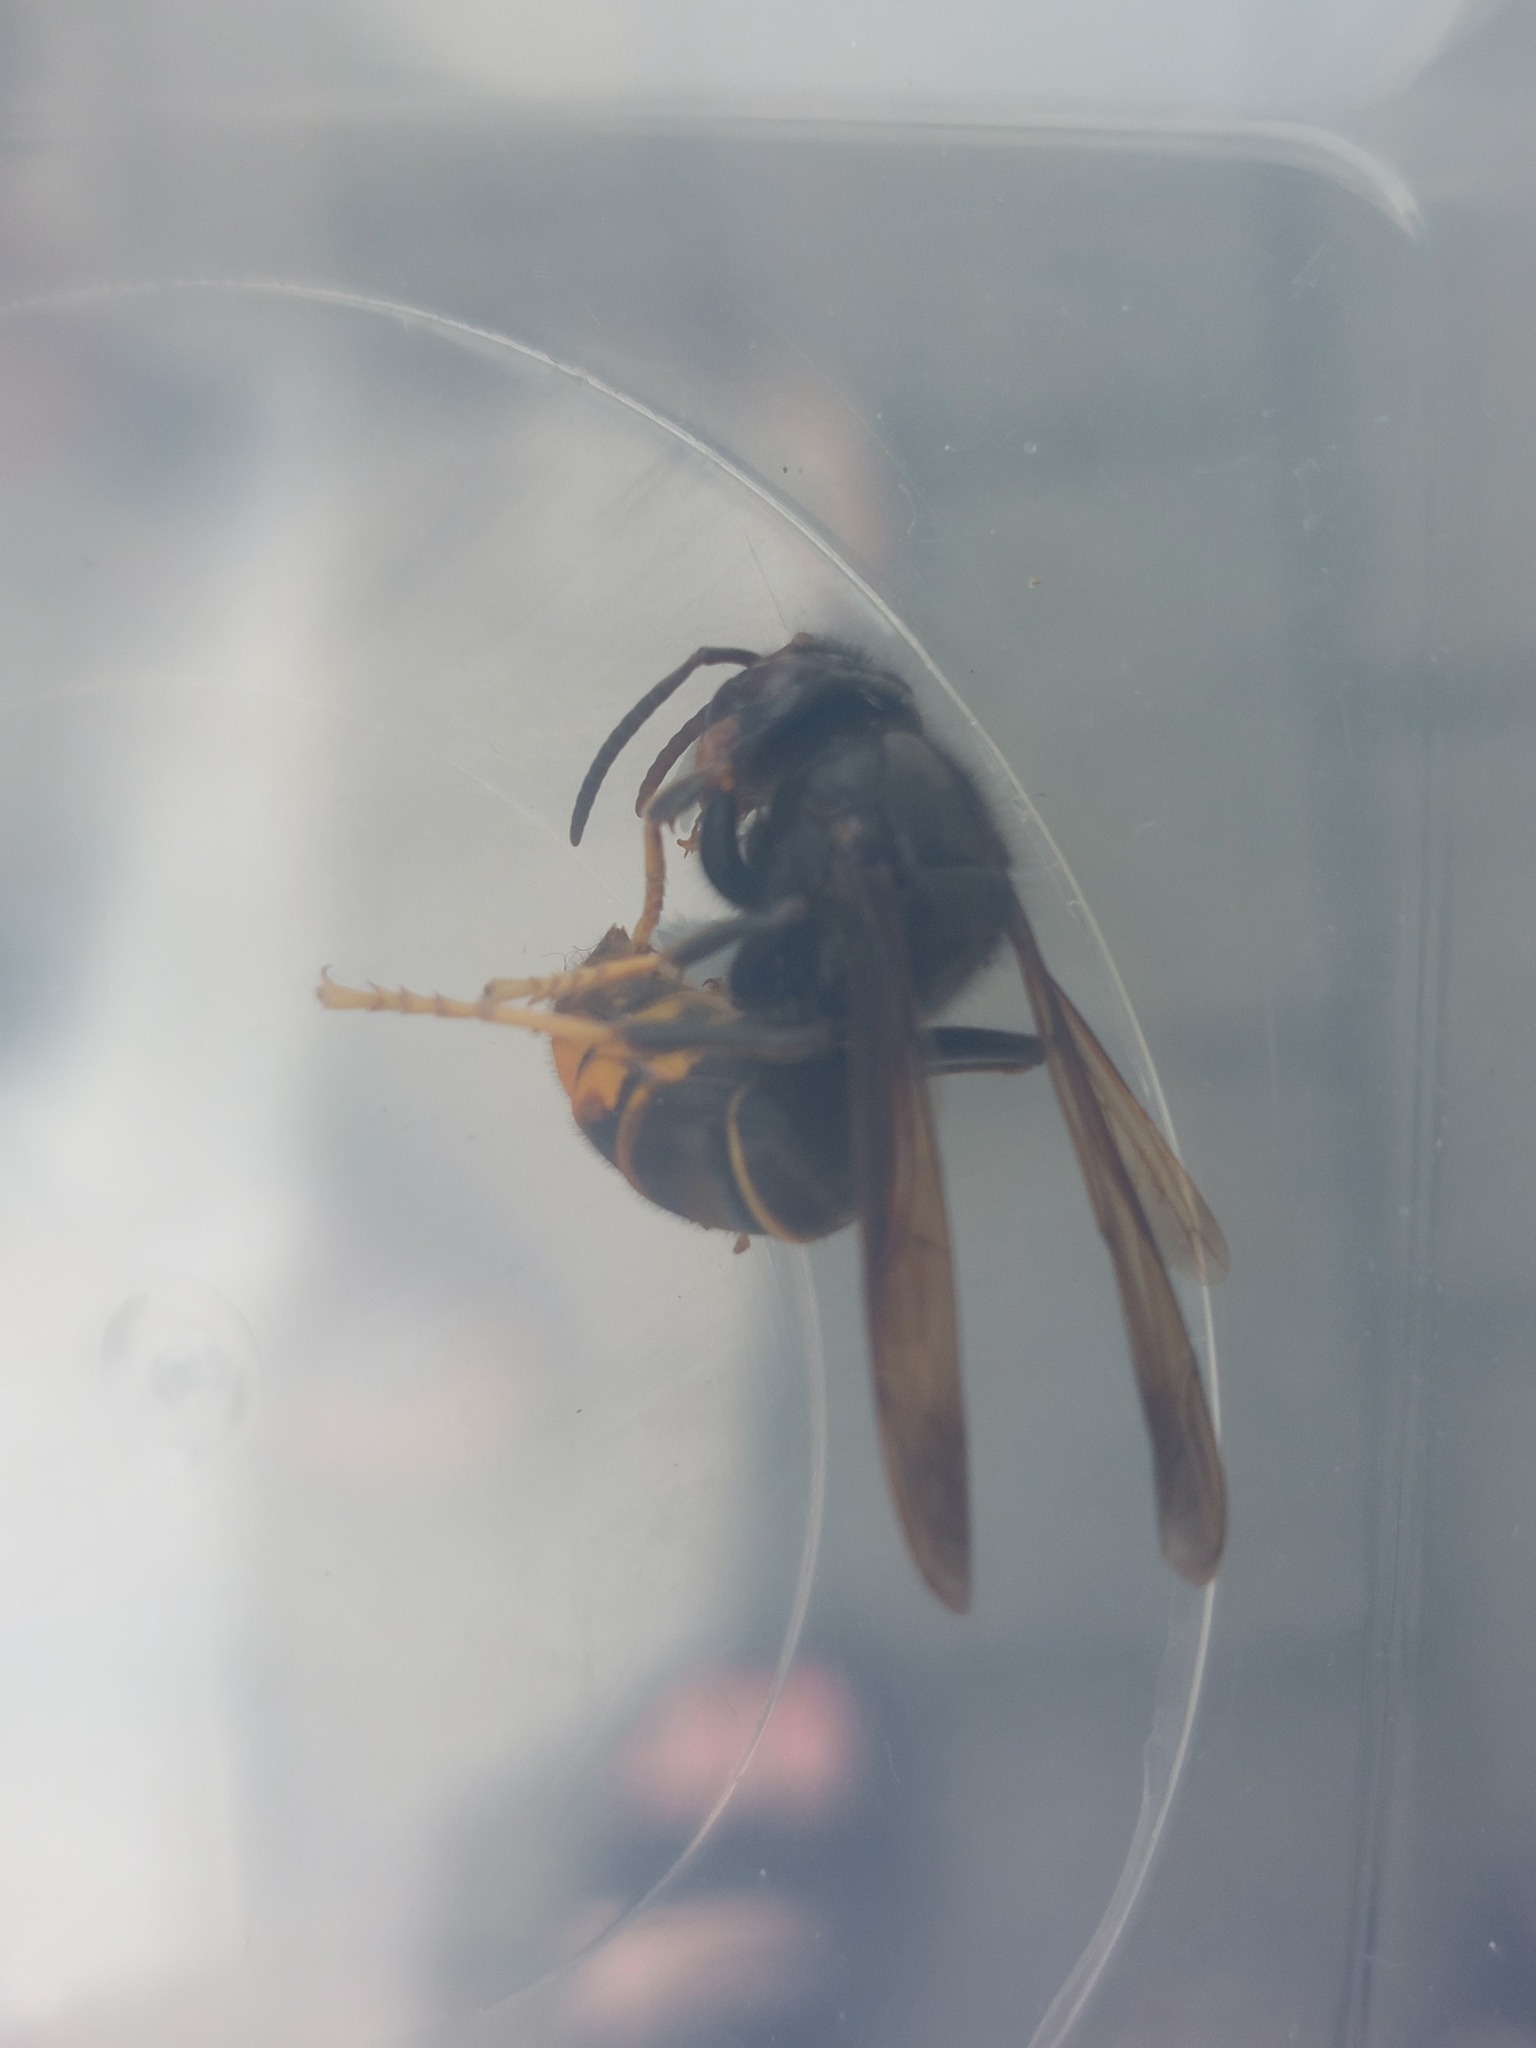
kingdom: Animalia
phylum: Arthropoda
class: Insecta
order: Hymenoptera
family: Vespidae
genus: Vespa
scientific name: Vespa velutina
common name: Asian hornet
